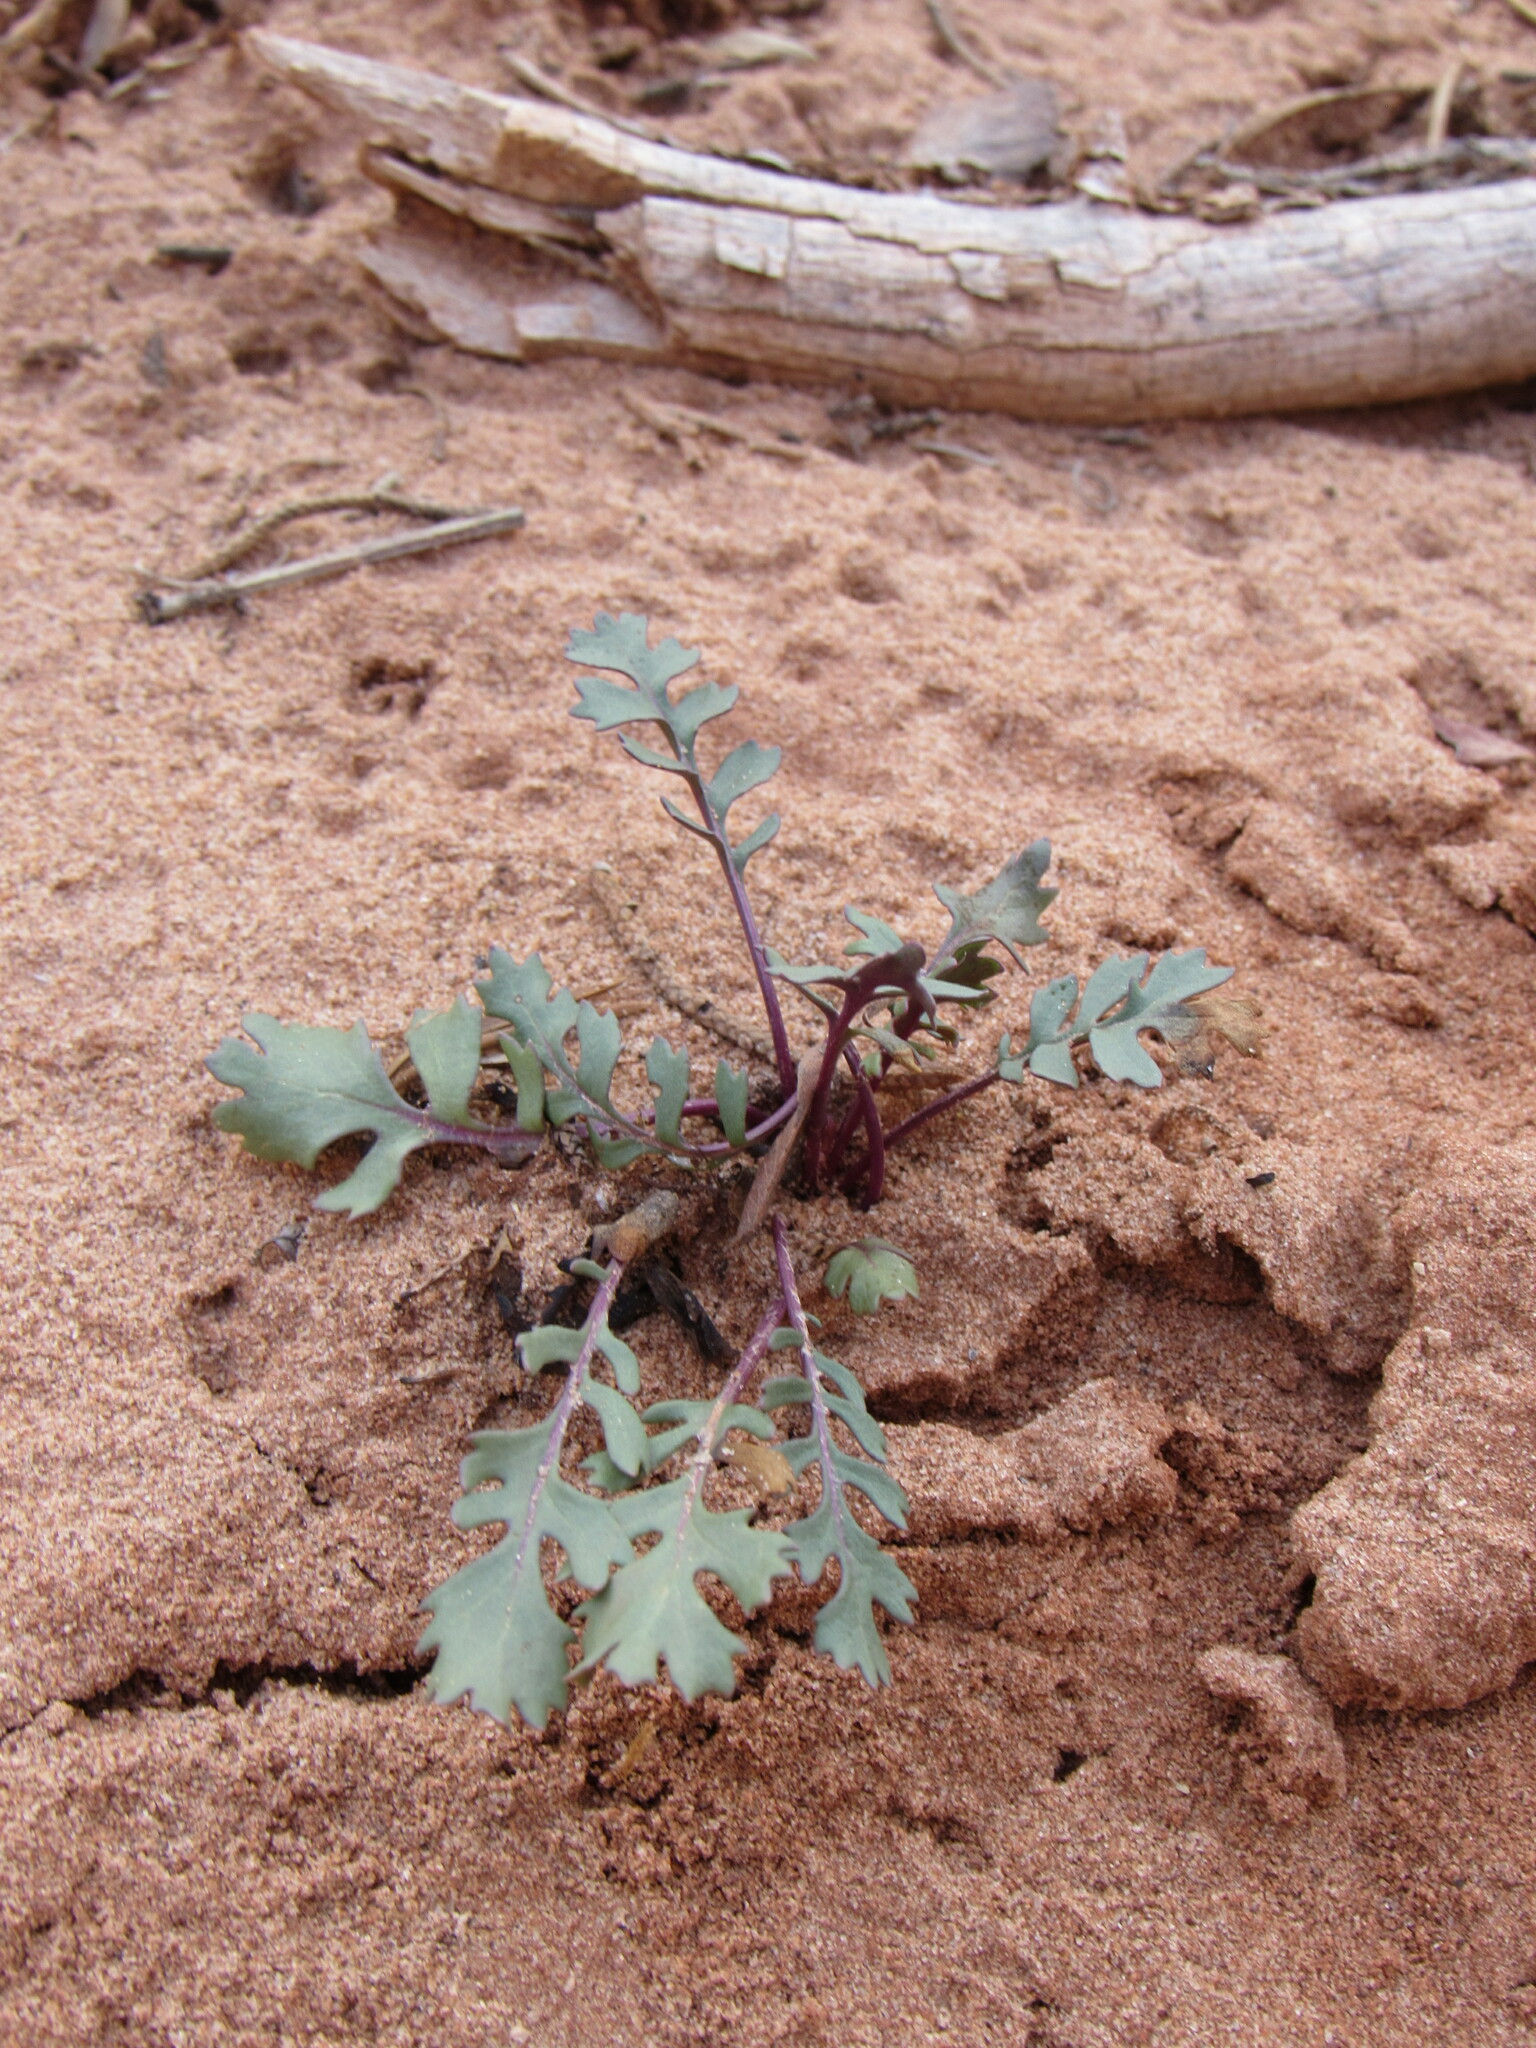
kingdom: Plantae
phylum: Tracheophyta
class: Magnoliopsida
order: Asterales
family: Asteraceae
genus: Packera
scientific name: Packera multilobata
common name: Lobe-leaf groundsel
